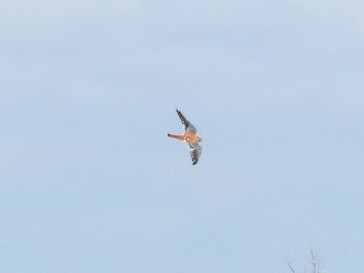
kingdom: Animalia
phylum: Chordata
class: Aves
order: Falconiformes
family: Falconidae
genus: Falco
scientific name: Falco sparverius
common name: American kestrel
